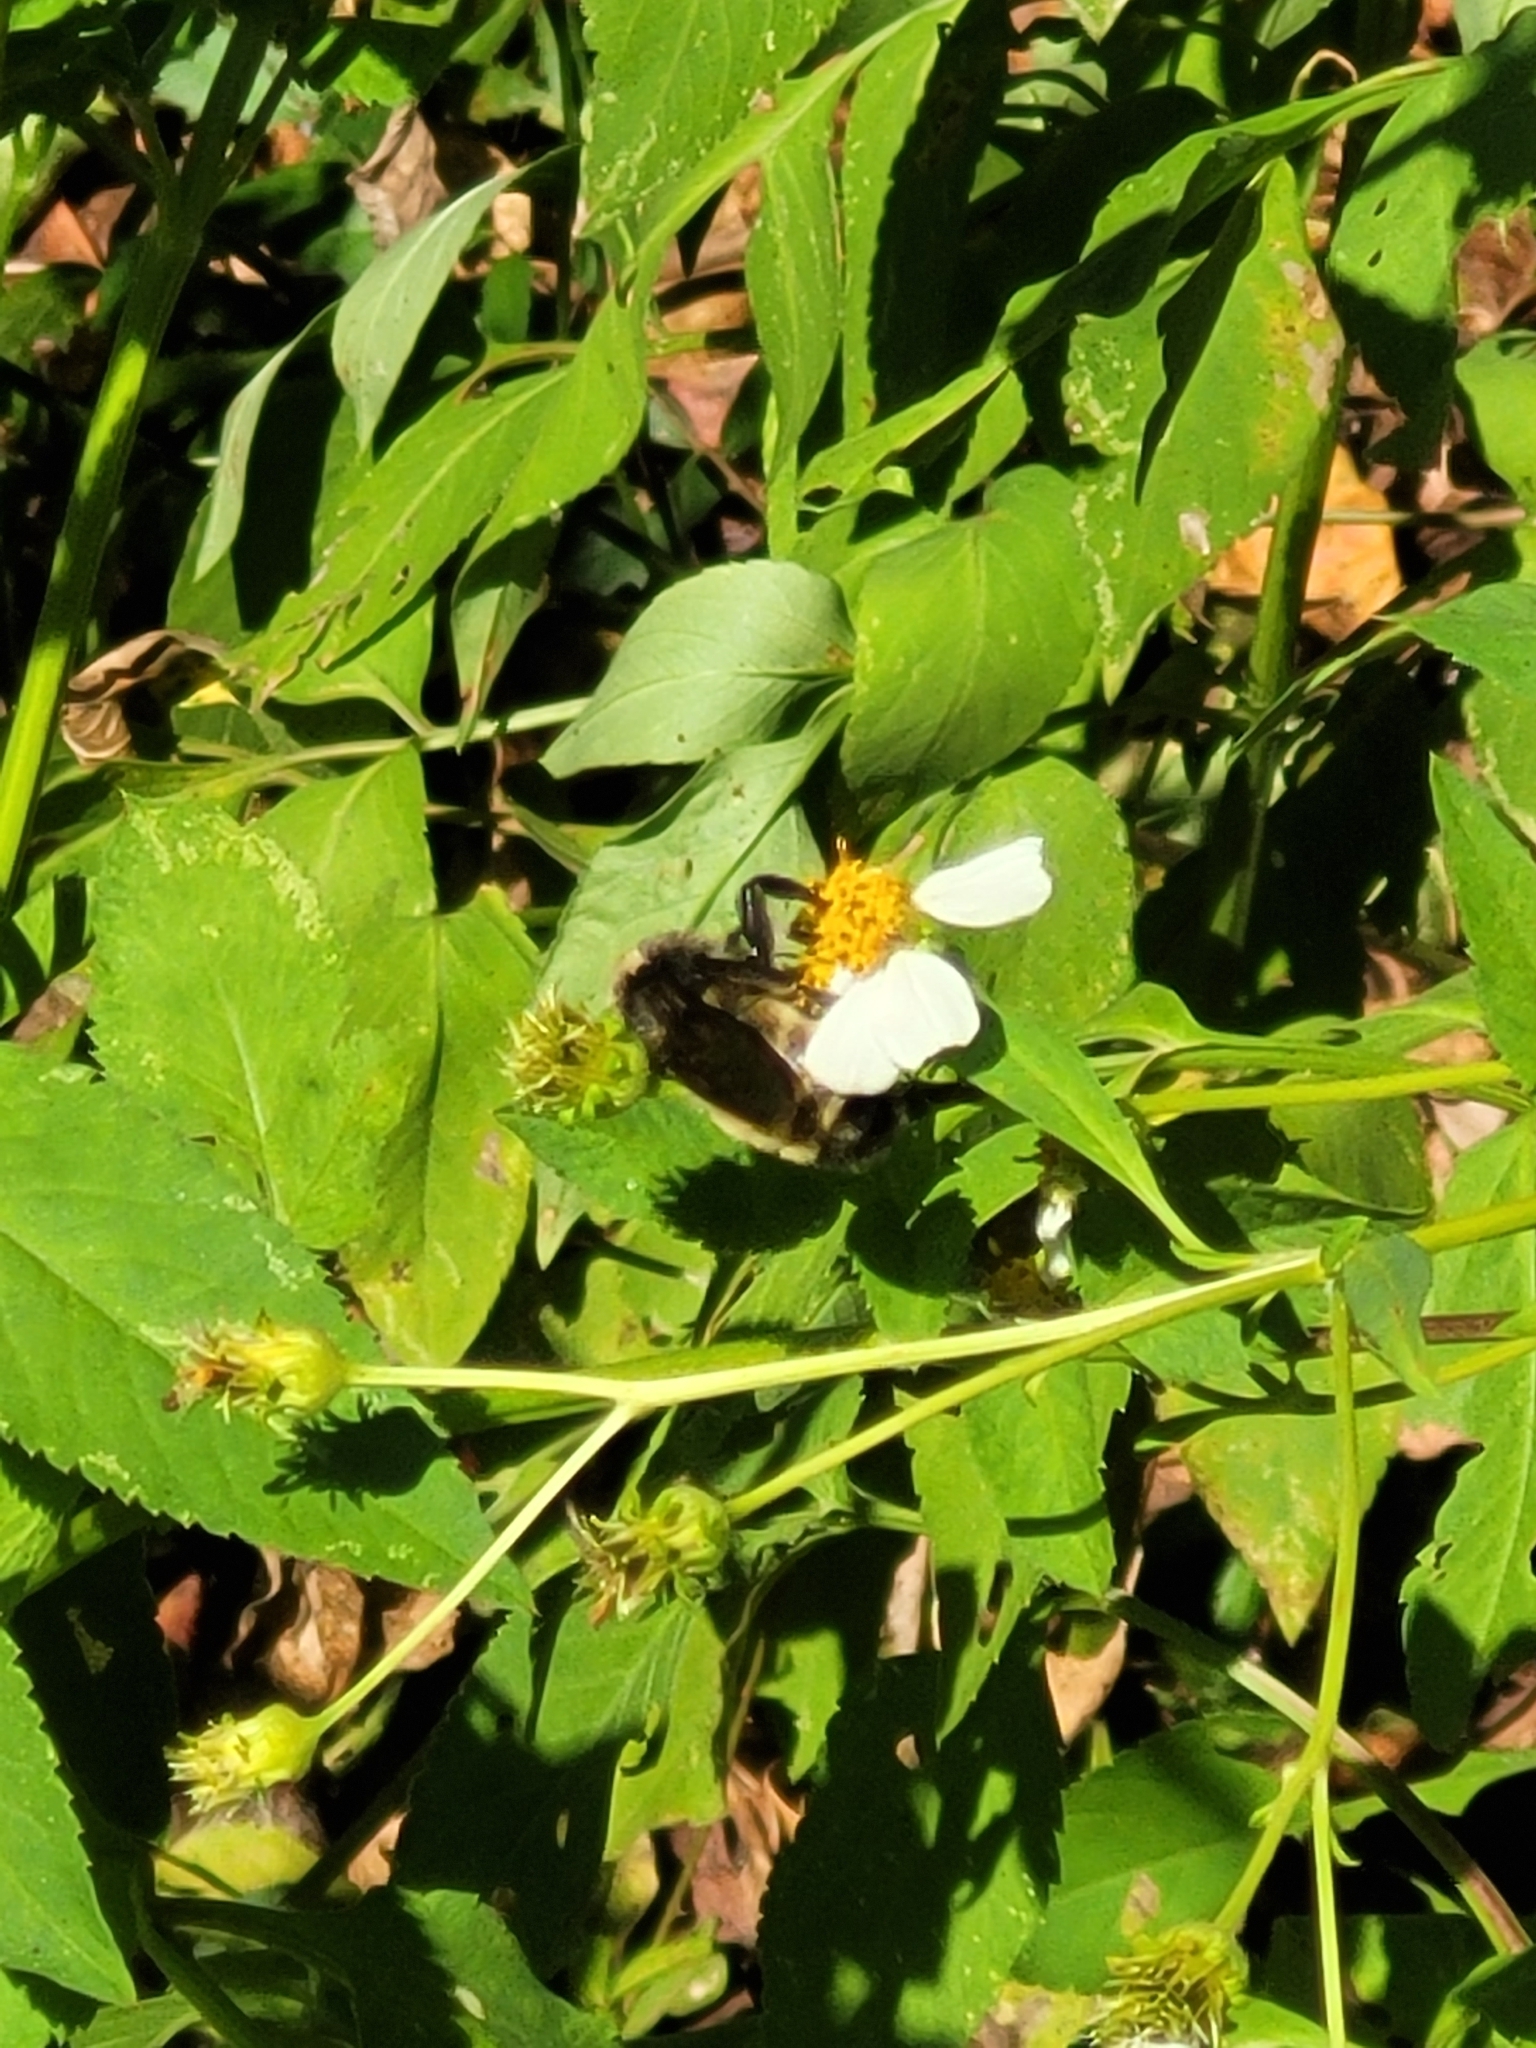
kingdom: Animalia
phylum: Arthropoda
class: Insecta
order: Hymenoptera
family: Apidae
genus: Bombus
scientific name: Bombus pensylvanicus
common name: Bumble bee
